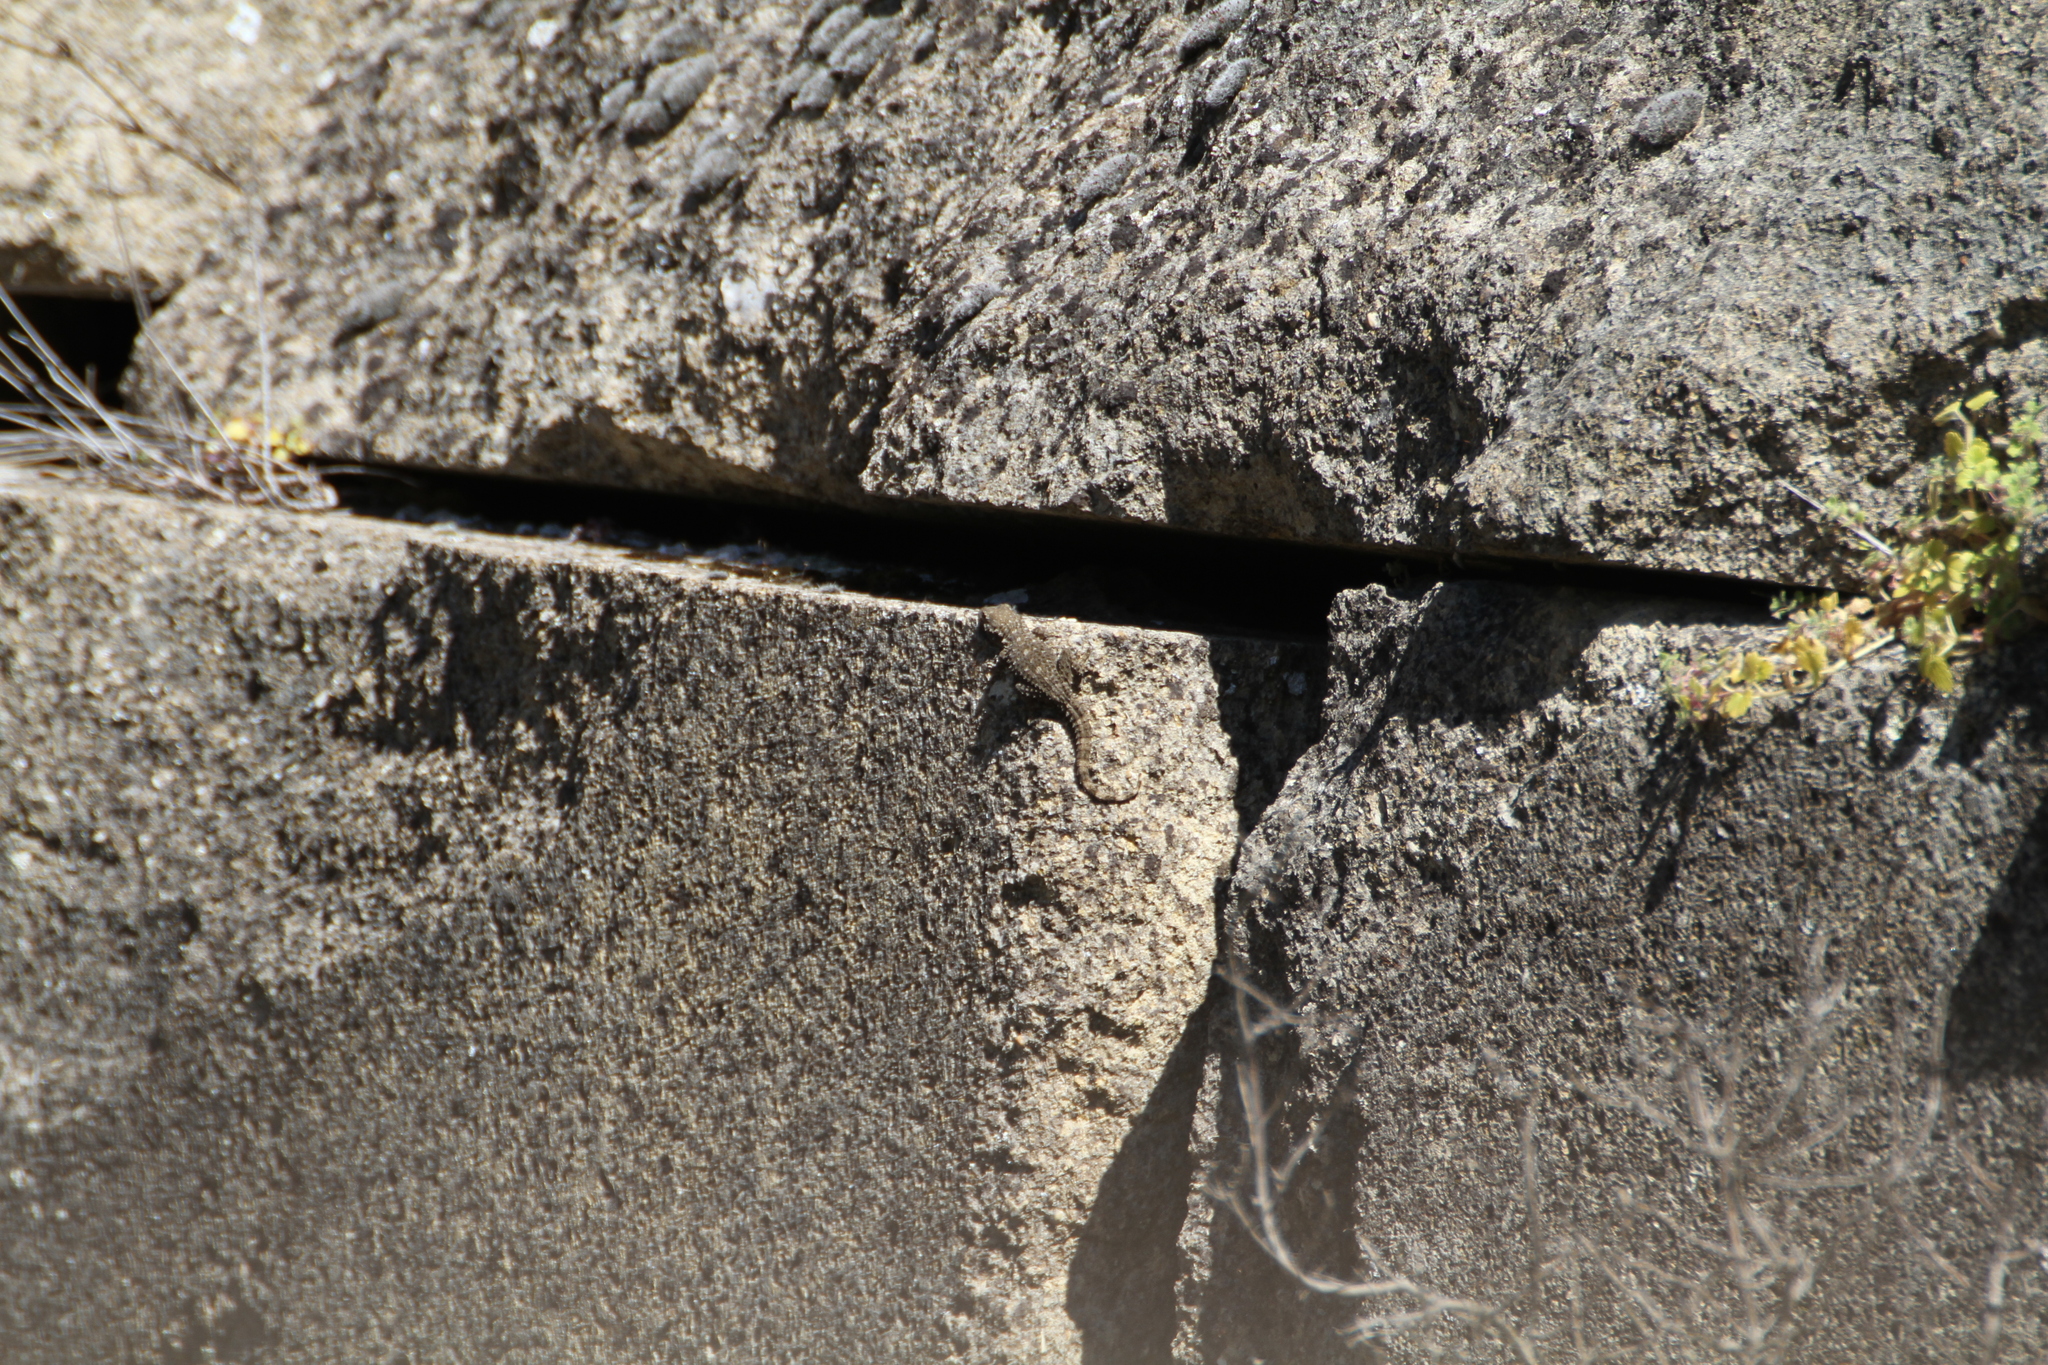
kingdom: Animalia
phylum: Chordata
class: Squamata
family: Phyllodactylidae
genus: Tarentola
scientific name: Tarentola mauritanica
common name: Moorish gecko
